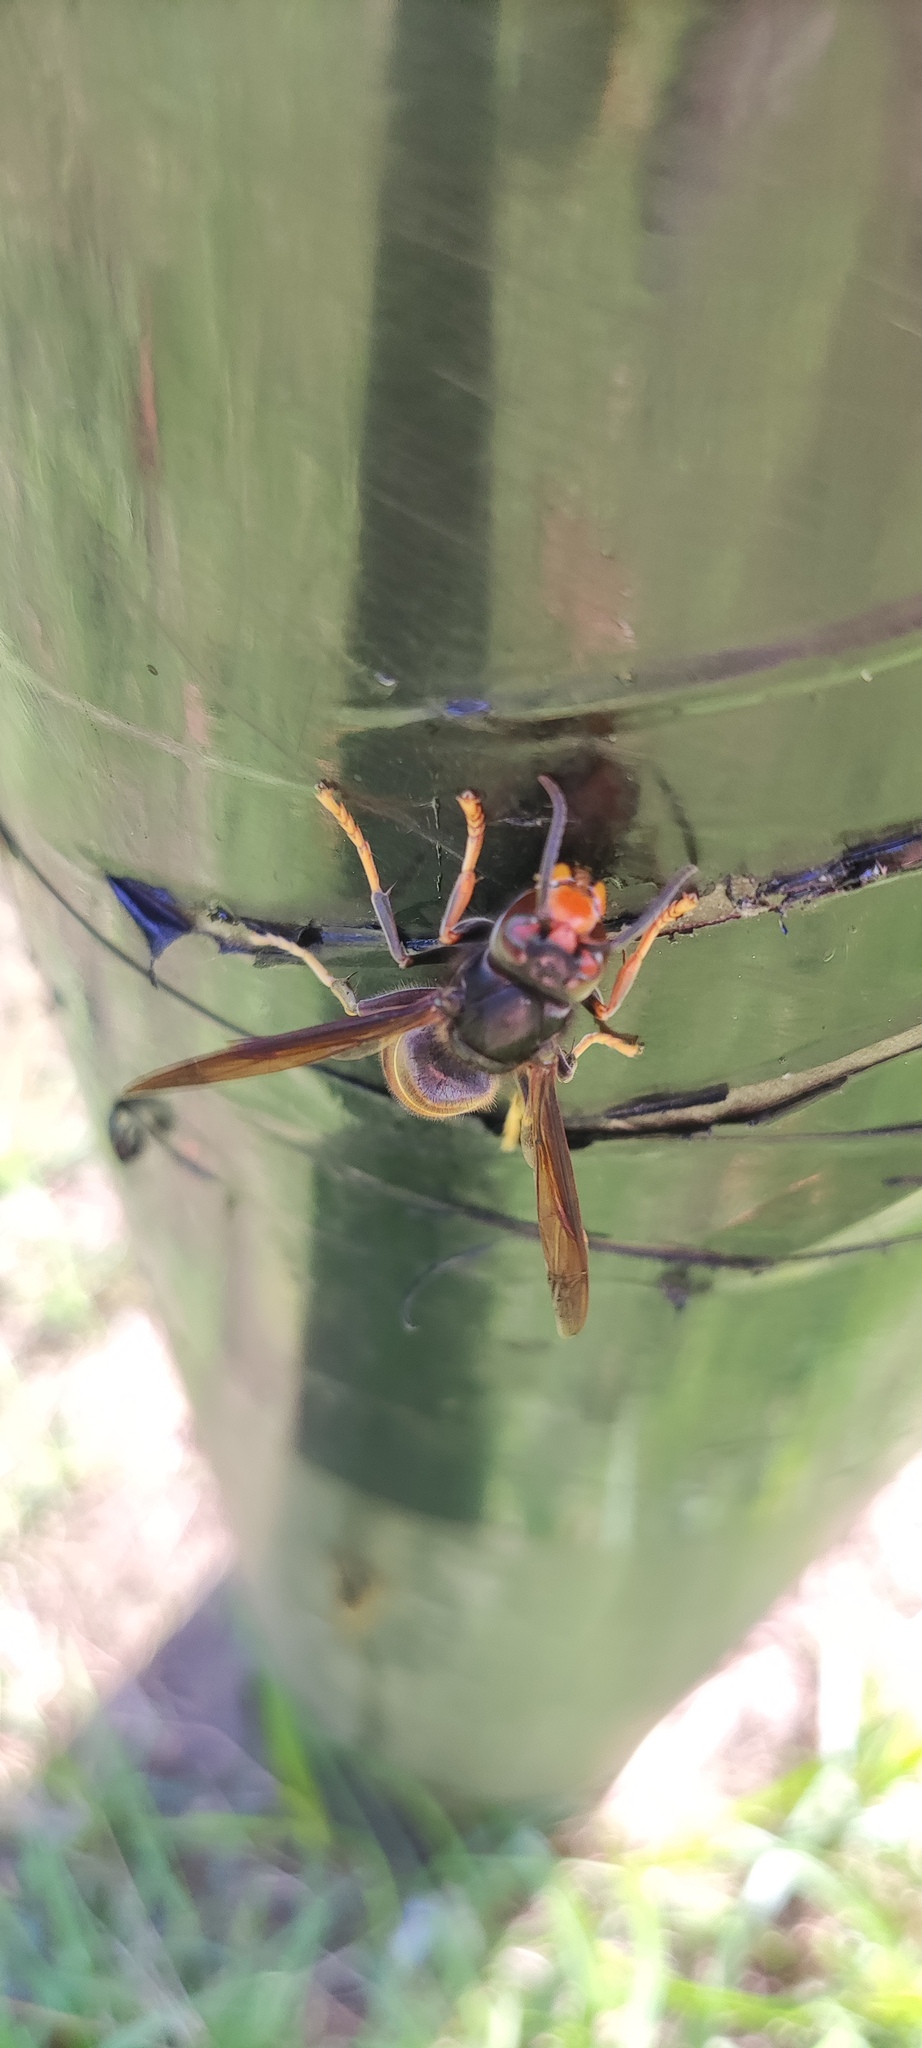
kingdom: Animalia
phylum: Arthropoda
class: Insecta
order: Hymenoptera
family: Vespidae
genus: Vespa
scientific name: Vespa velutina
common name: Asian hornet
